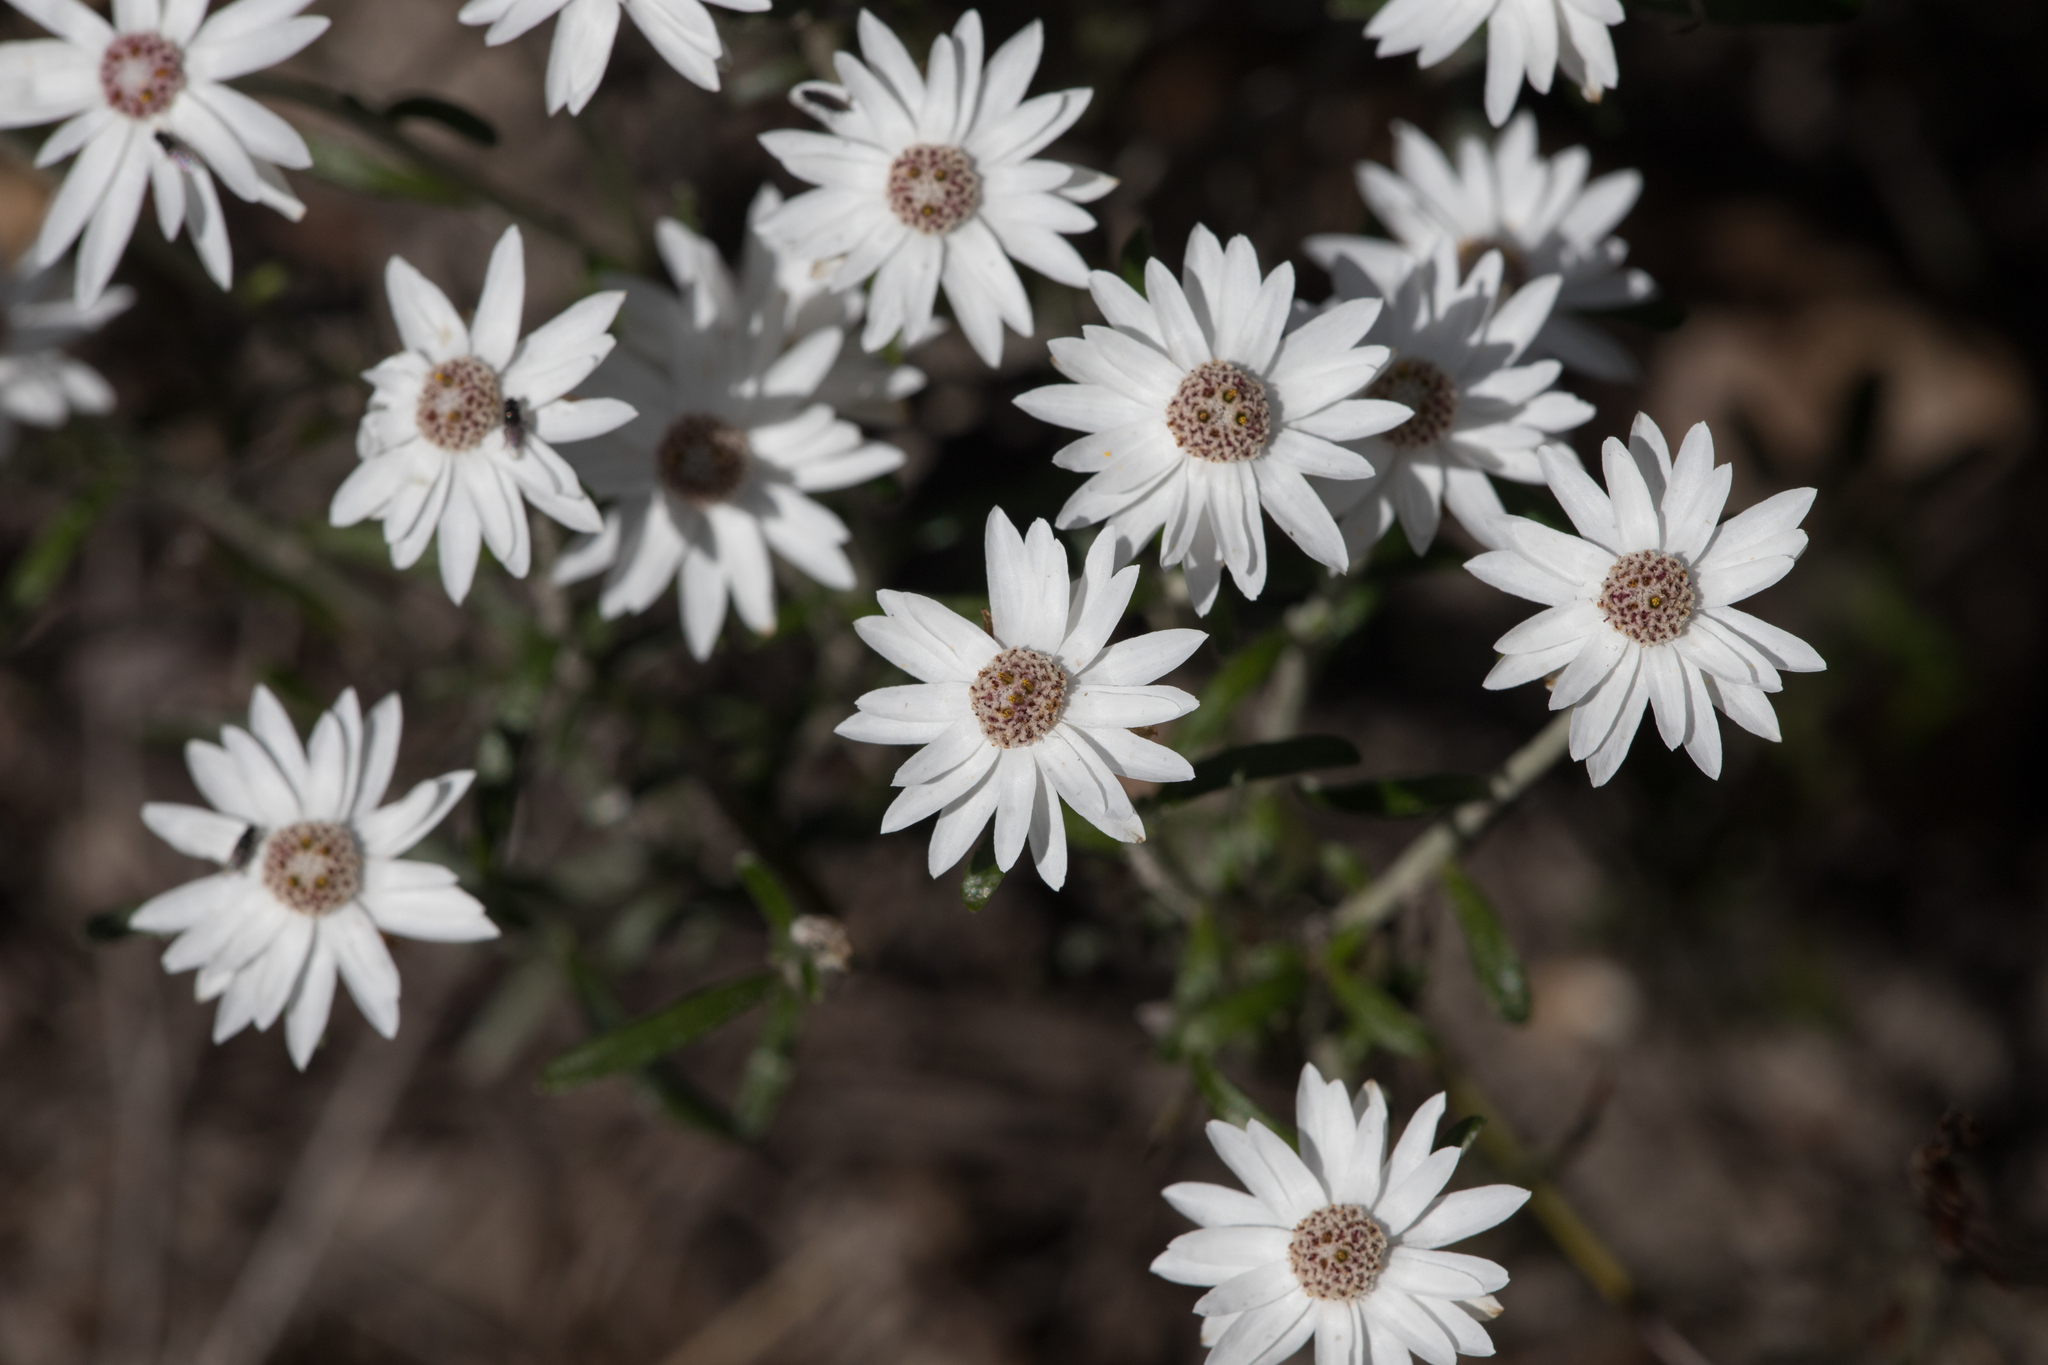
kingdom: Plantae
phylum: Tracheophyta
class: Magnoliopsida
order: Asterales
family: Asteraceae
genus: Argentipallium
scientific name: Argentipallium obtusifolium
